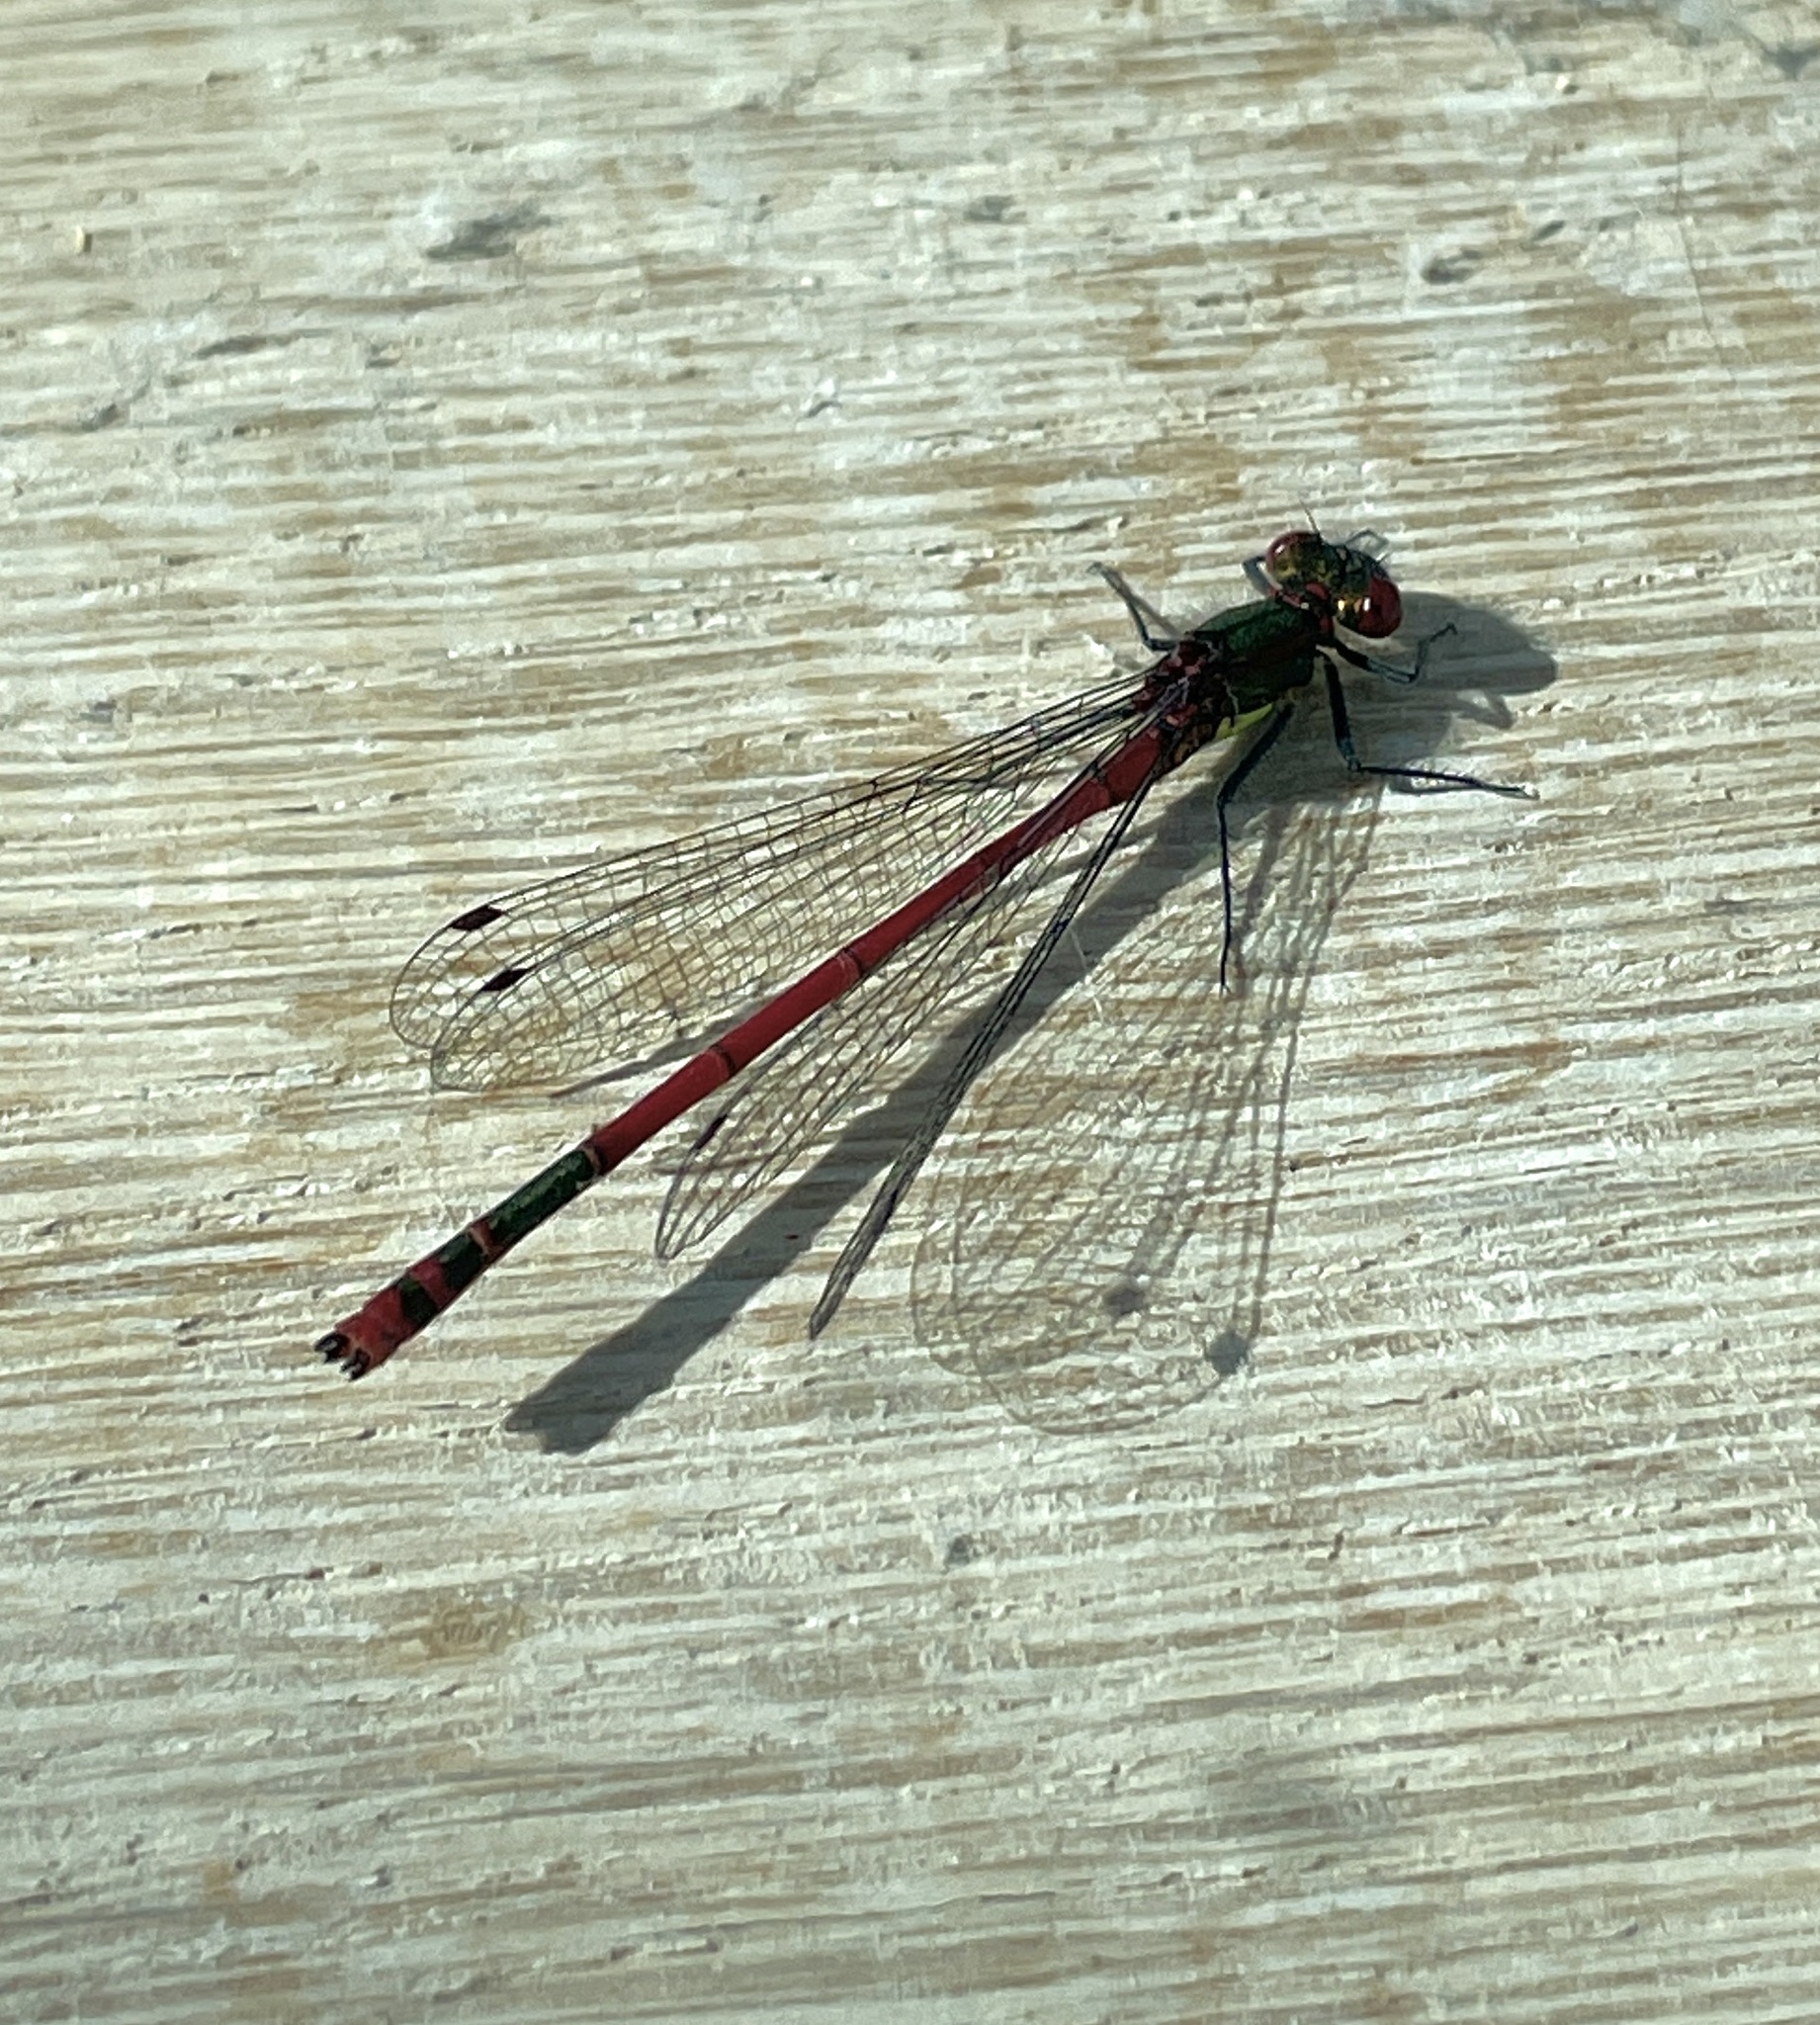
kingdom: Animalia
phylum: Arthropoda
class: Insecta
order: Odonata
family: Coenagrionidae
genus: Pyrrhosoma
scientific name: Pyrrhosoma nymphula
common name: Large red damsel
